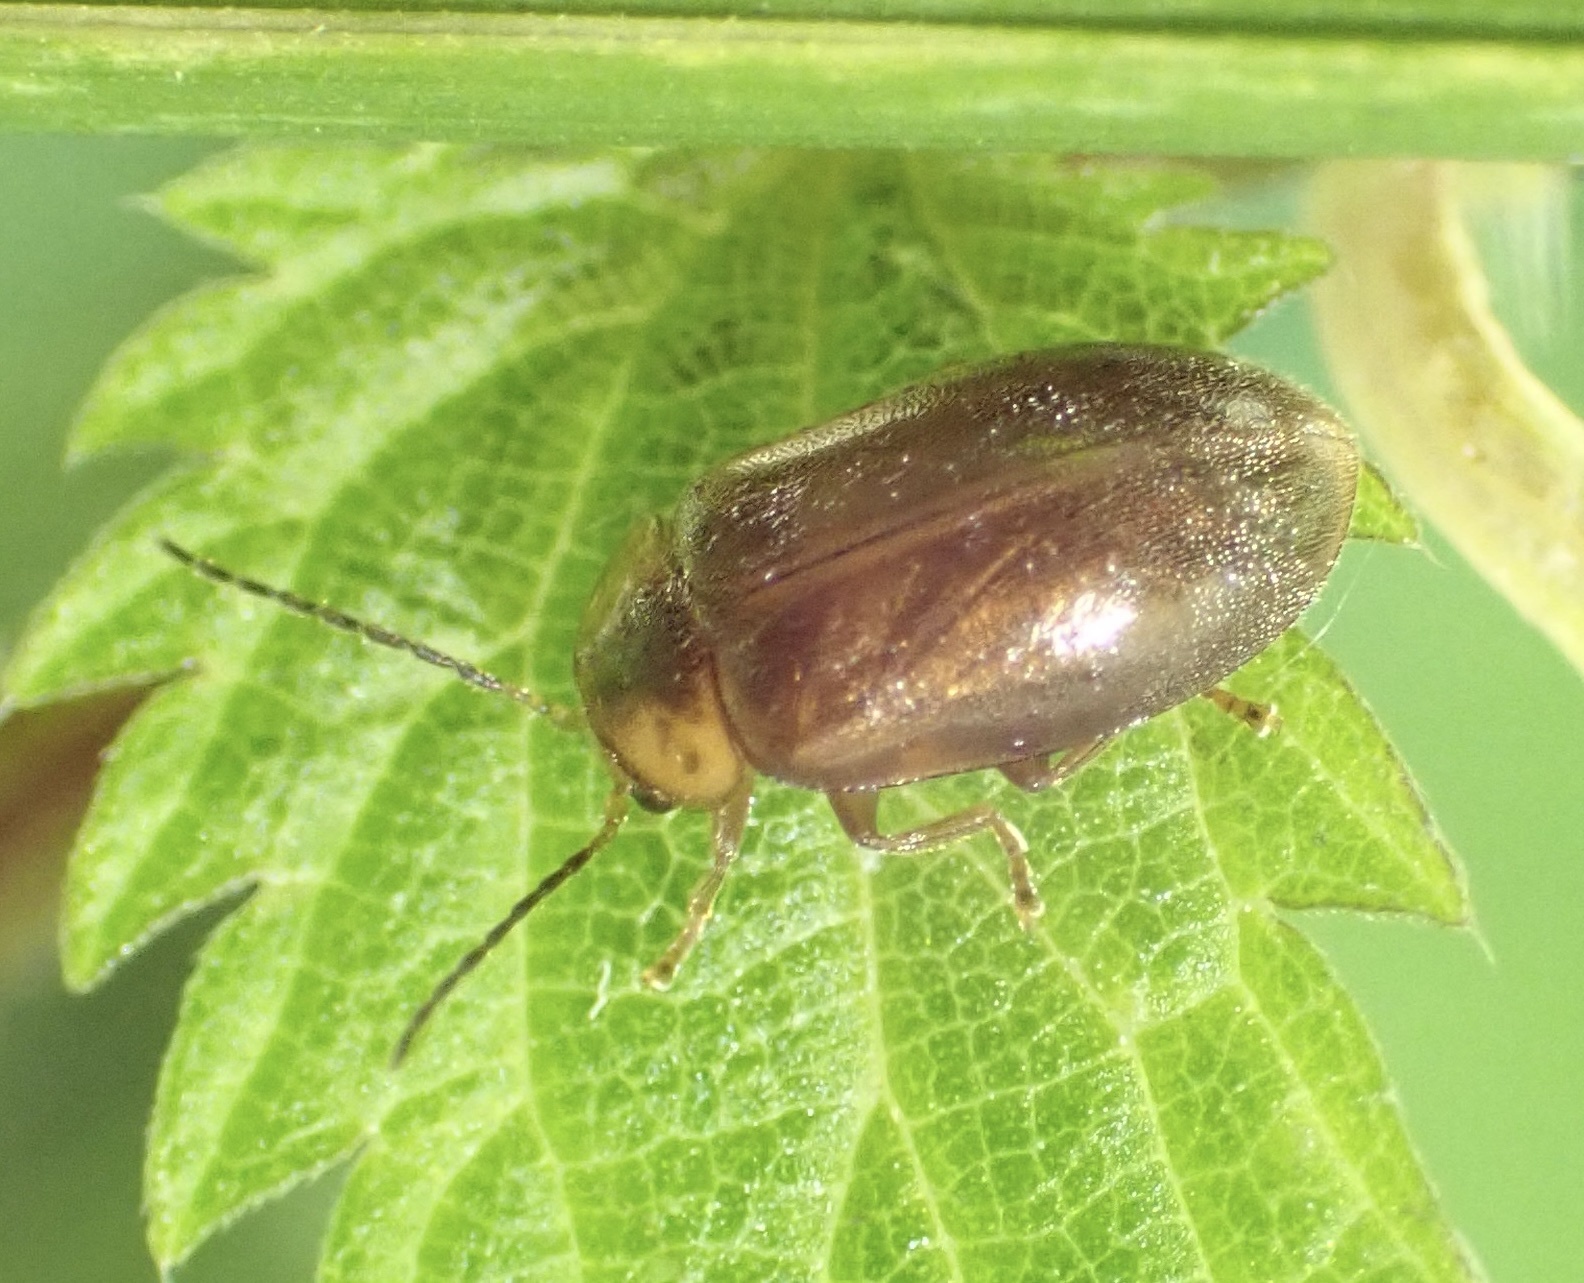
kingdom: Animalia
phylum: Arthropoda
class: Insecta
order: Coleoptera
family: Scirtidae
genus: Microcara
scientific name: Microcara testacea
